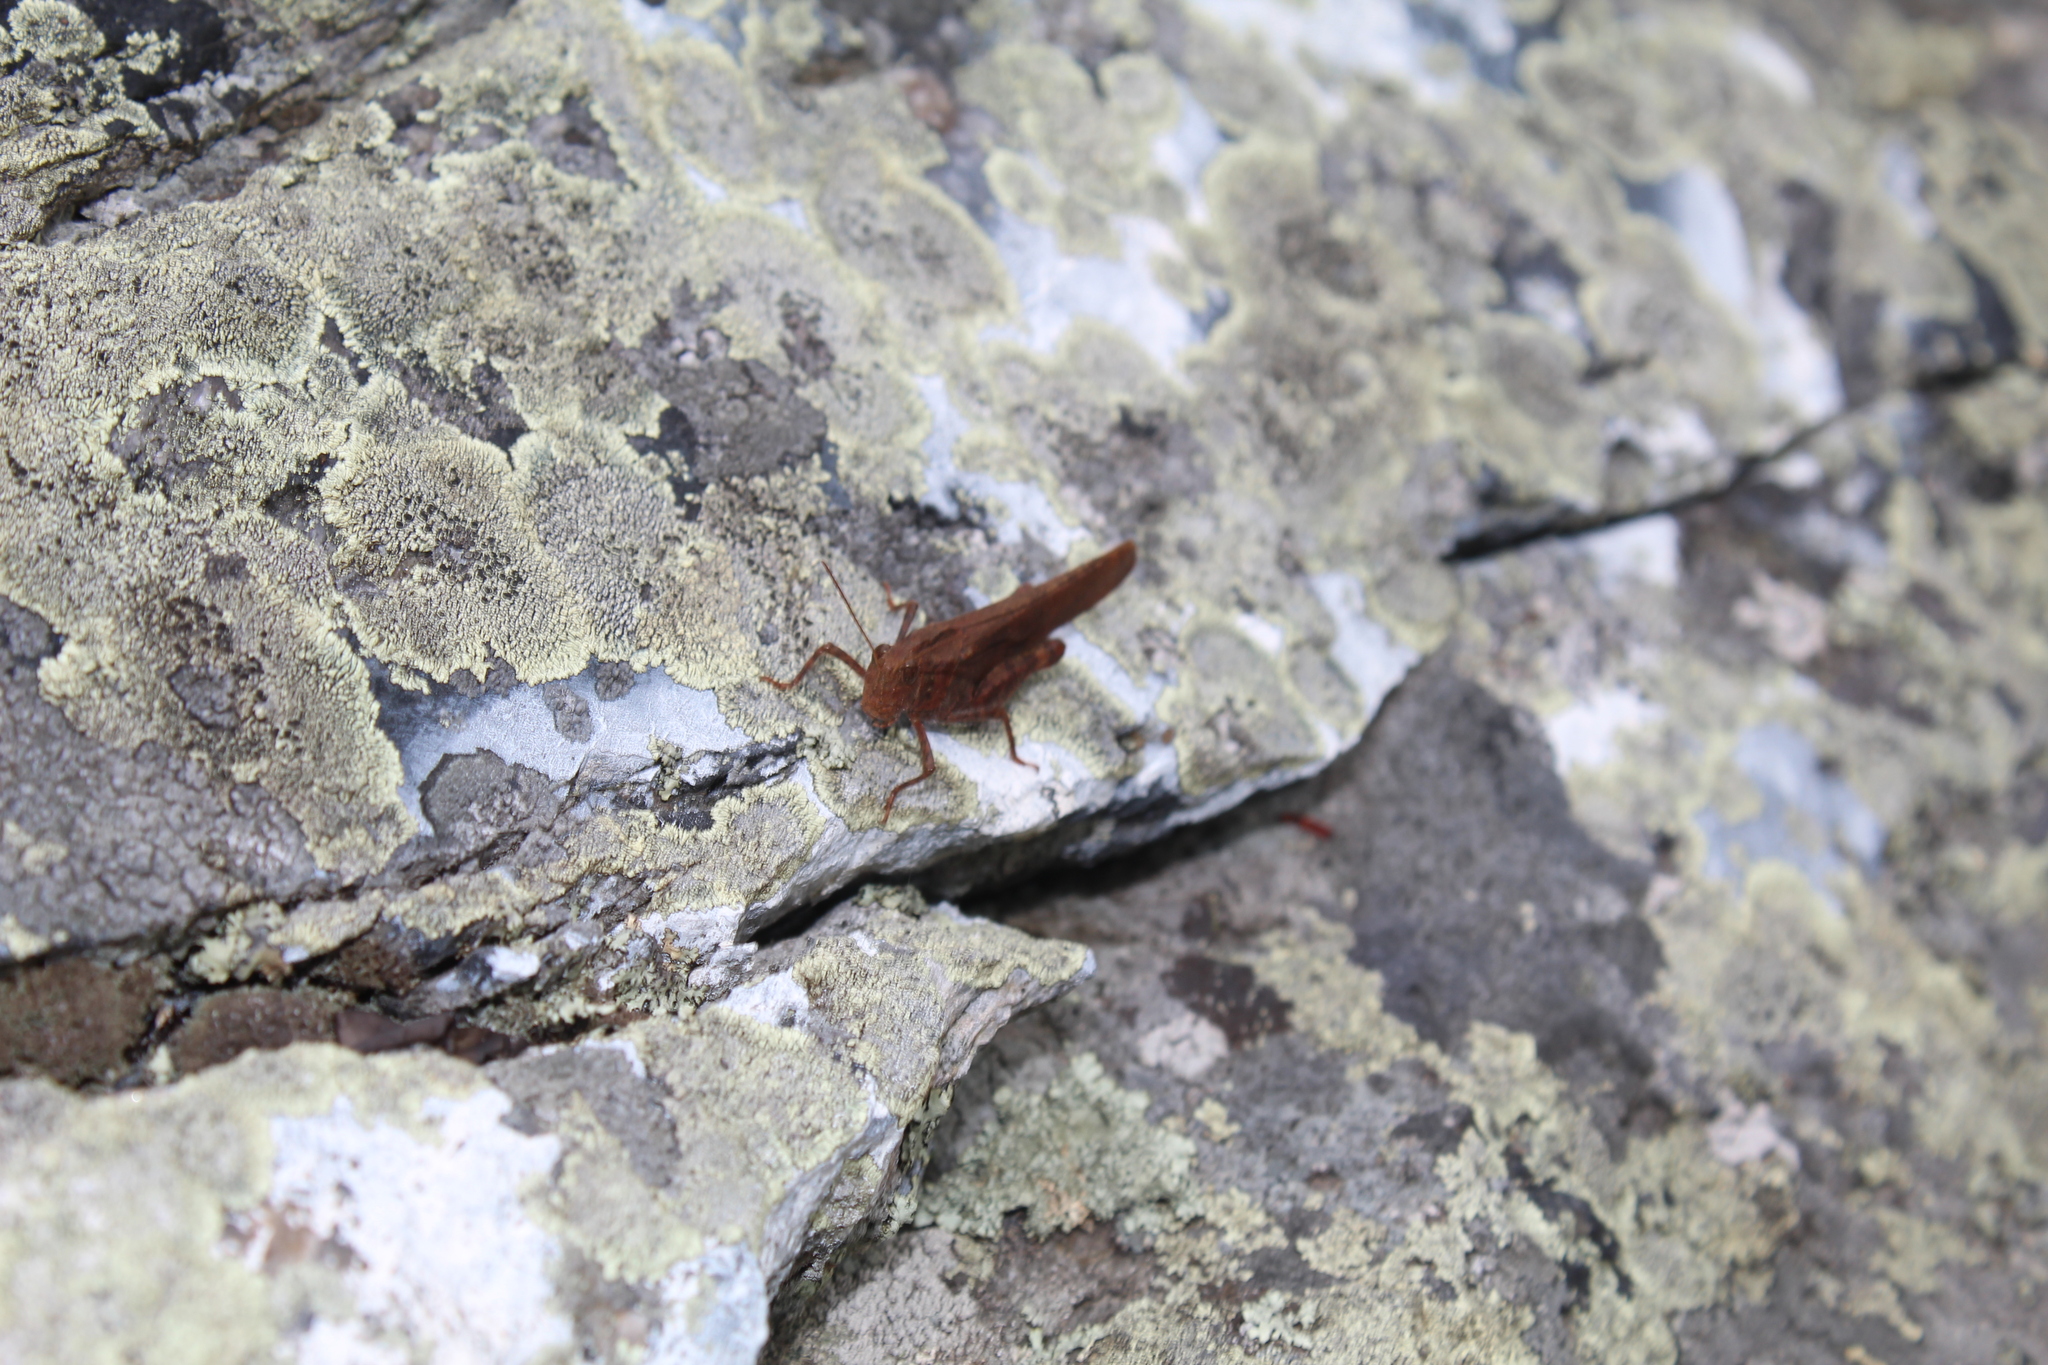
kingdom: Animalia
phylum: Arthropoda
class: Insecta
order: Orthoptera
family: Acrididae
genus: Dissosteira
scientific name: Dissosteira carolina
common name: Carolina grasshopper
